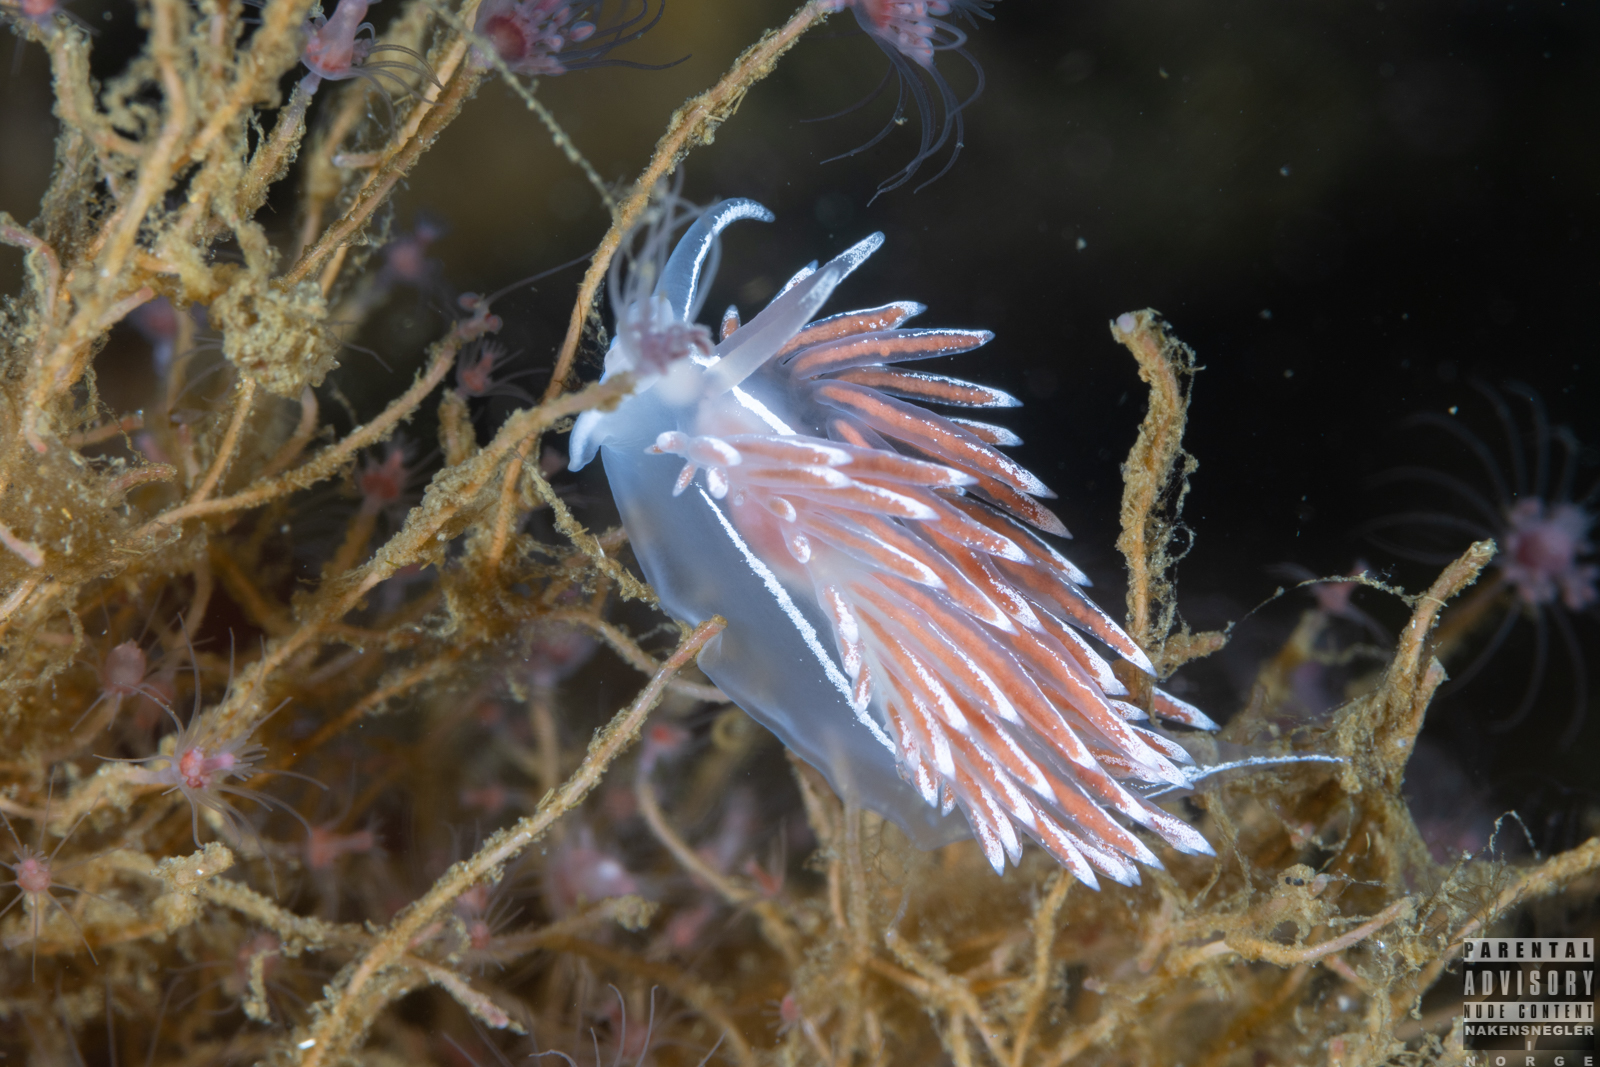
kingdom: Animalia
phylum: Mollusca
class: Gastropoda
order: Nudibranchia
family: Coryphellidae
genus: Coryphella
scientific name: Coryphella lineata
